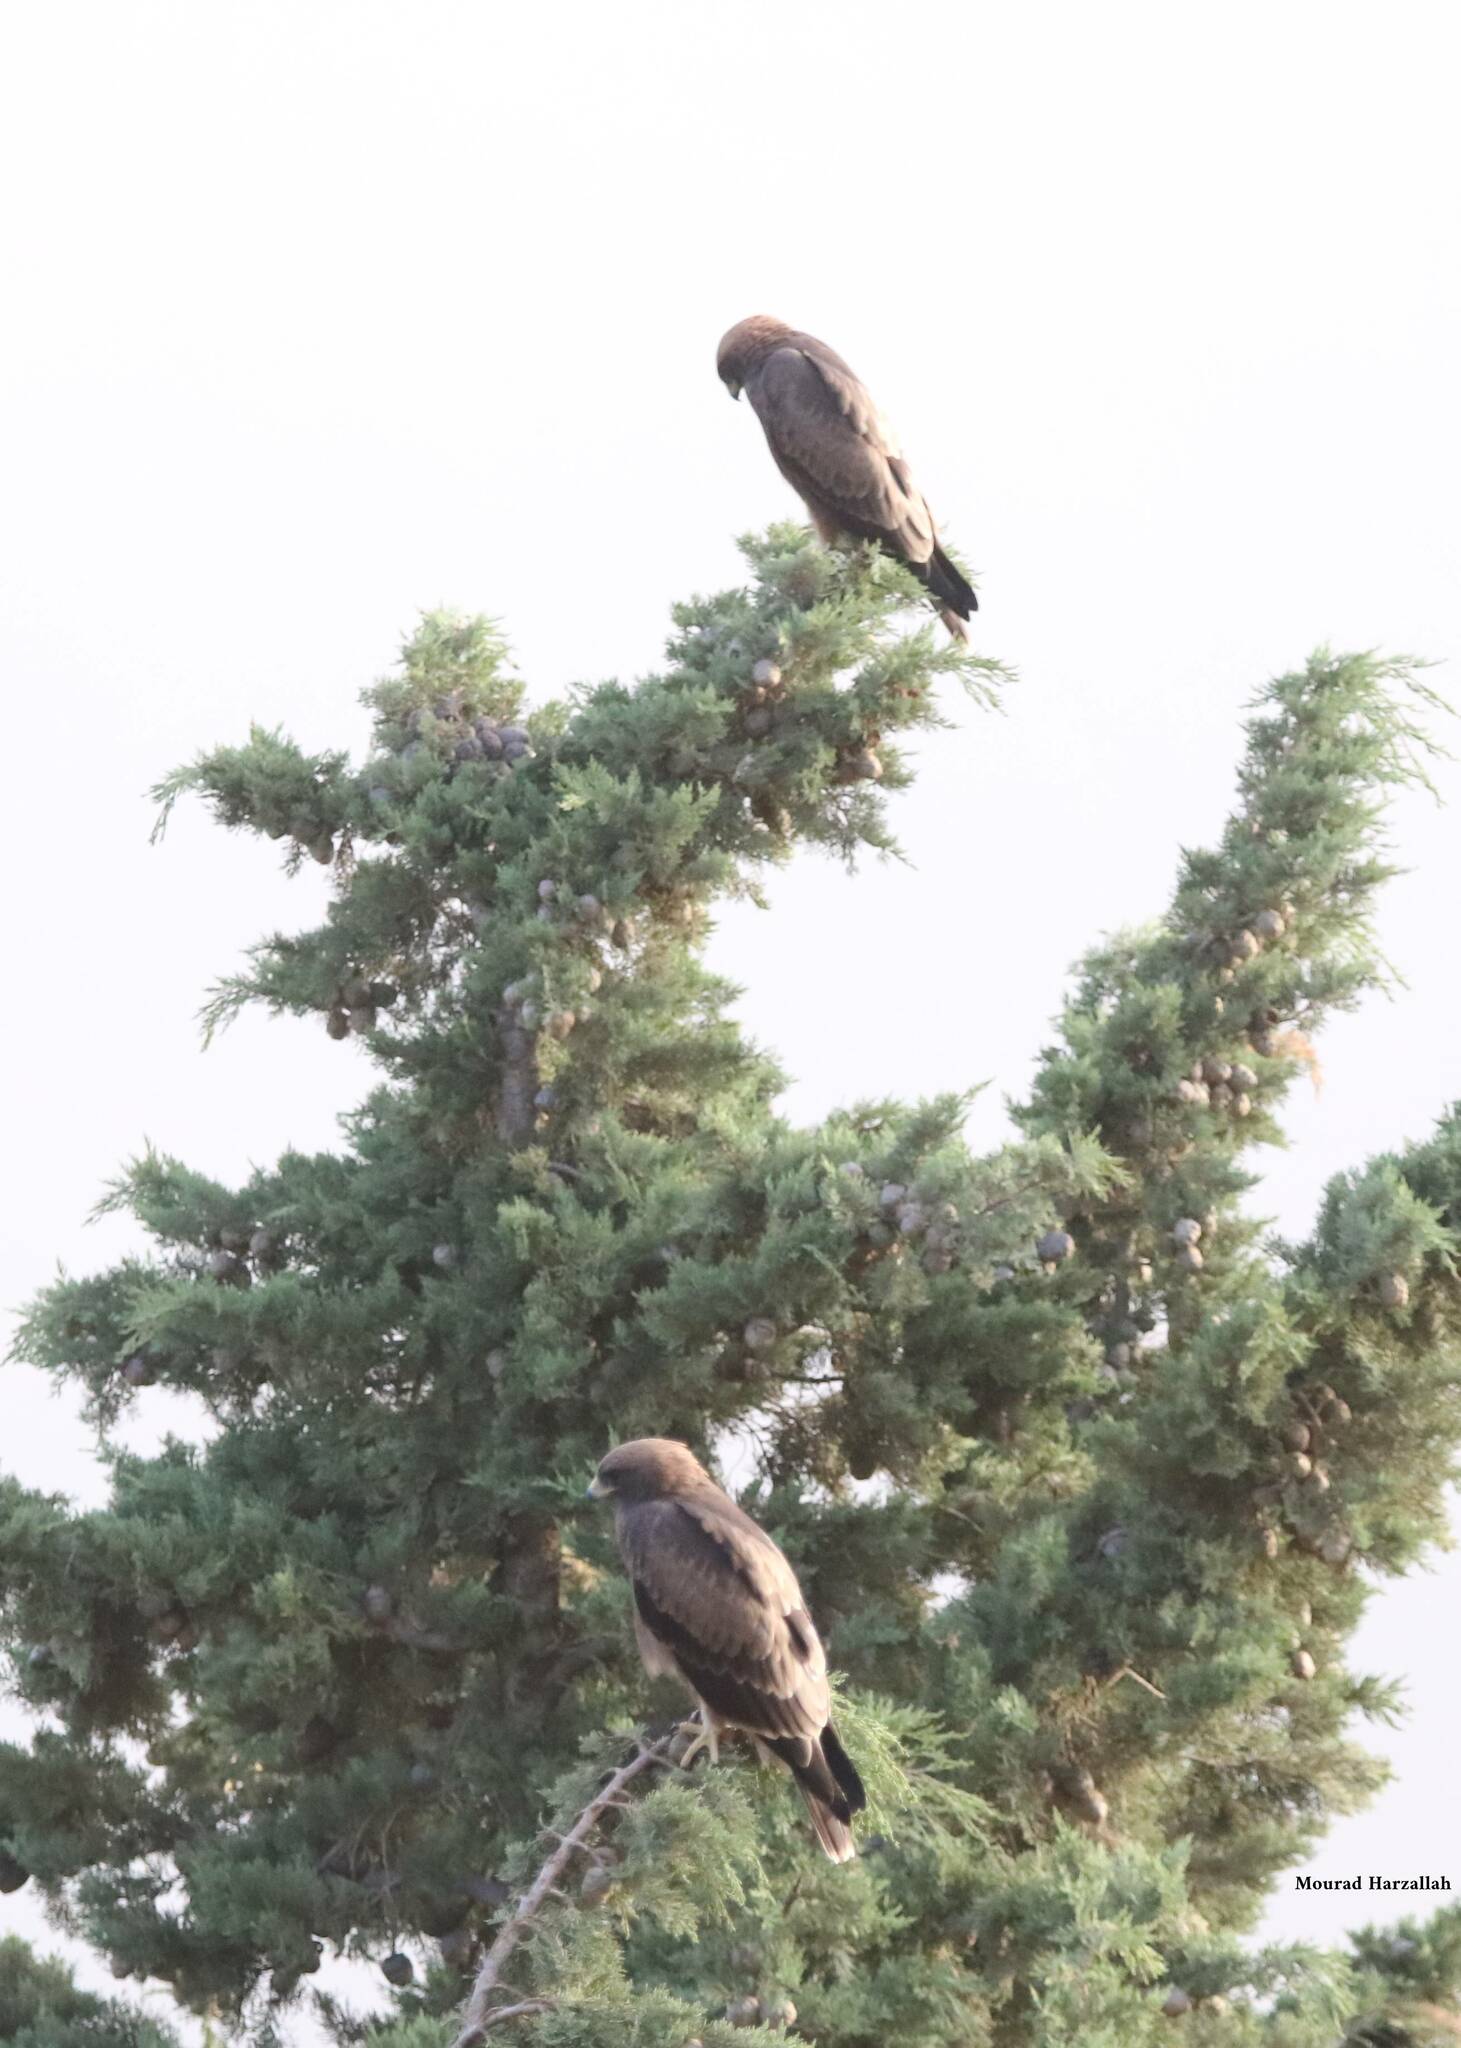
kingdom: Animalia
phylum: Chordata
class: Aves
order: Accipitriformes
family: Accipitridae
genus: Hieraaetus
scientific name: Hieraaetus pennatus
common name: Booted eagle
